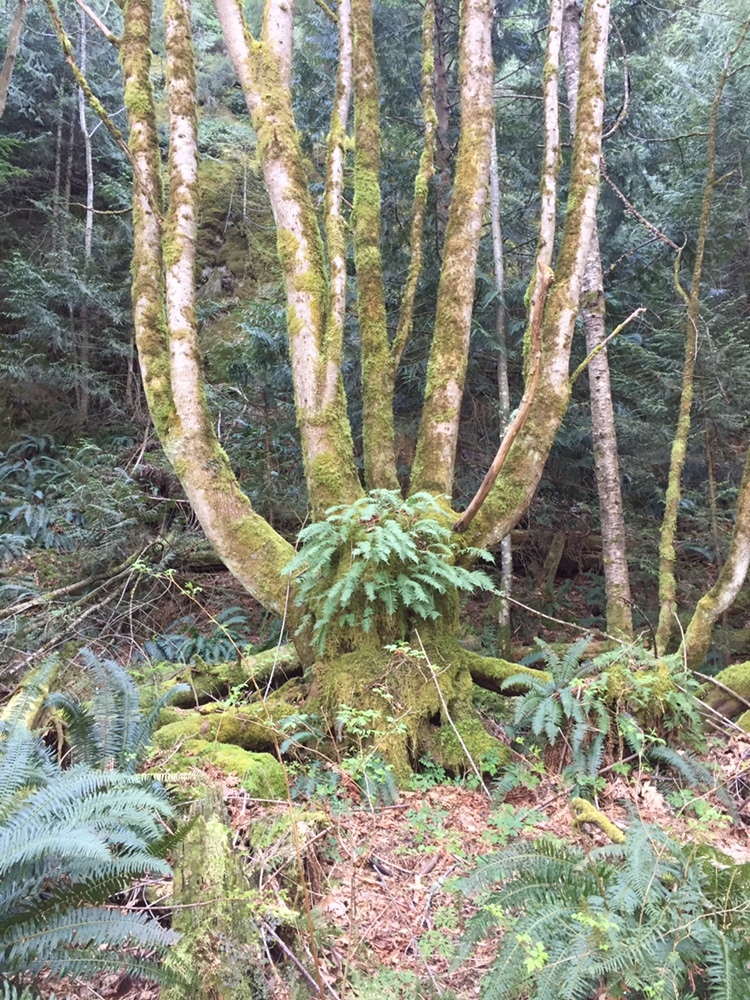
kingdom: Plantae
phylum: Tracheophyta
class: Polypodiopsida
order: Polypodiales
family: Polypodiaceae
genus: Polypodium
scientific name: Polypodium glycyrrhiza
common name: Licorice fern
